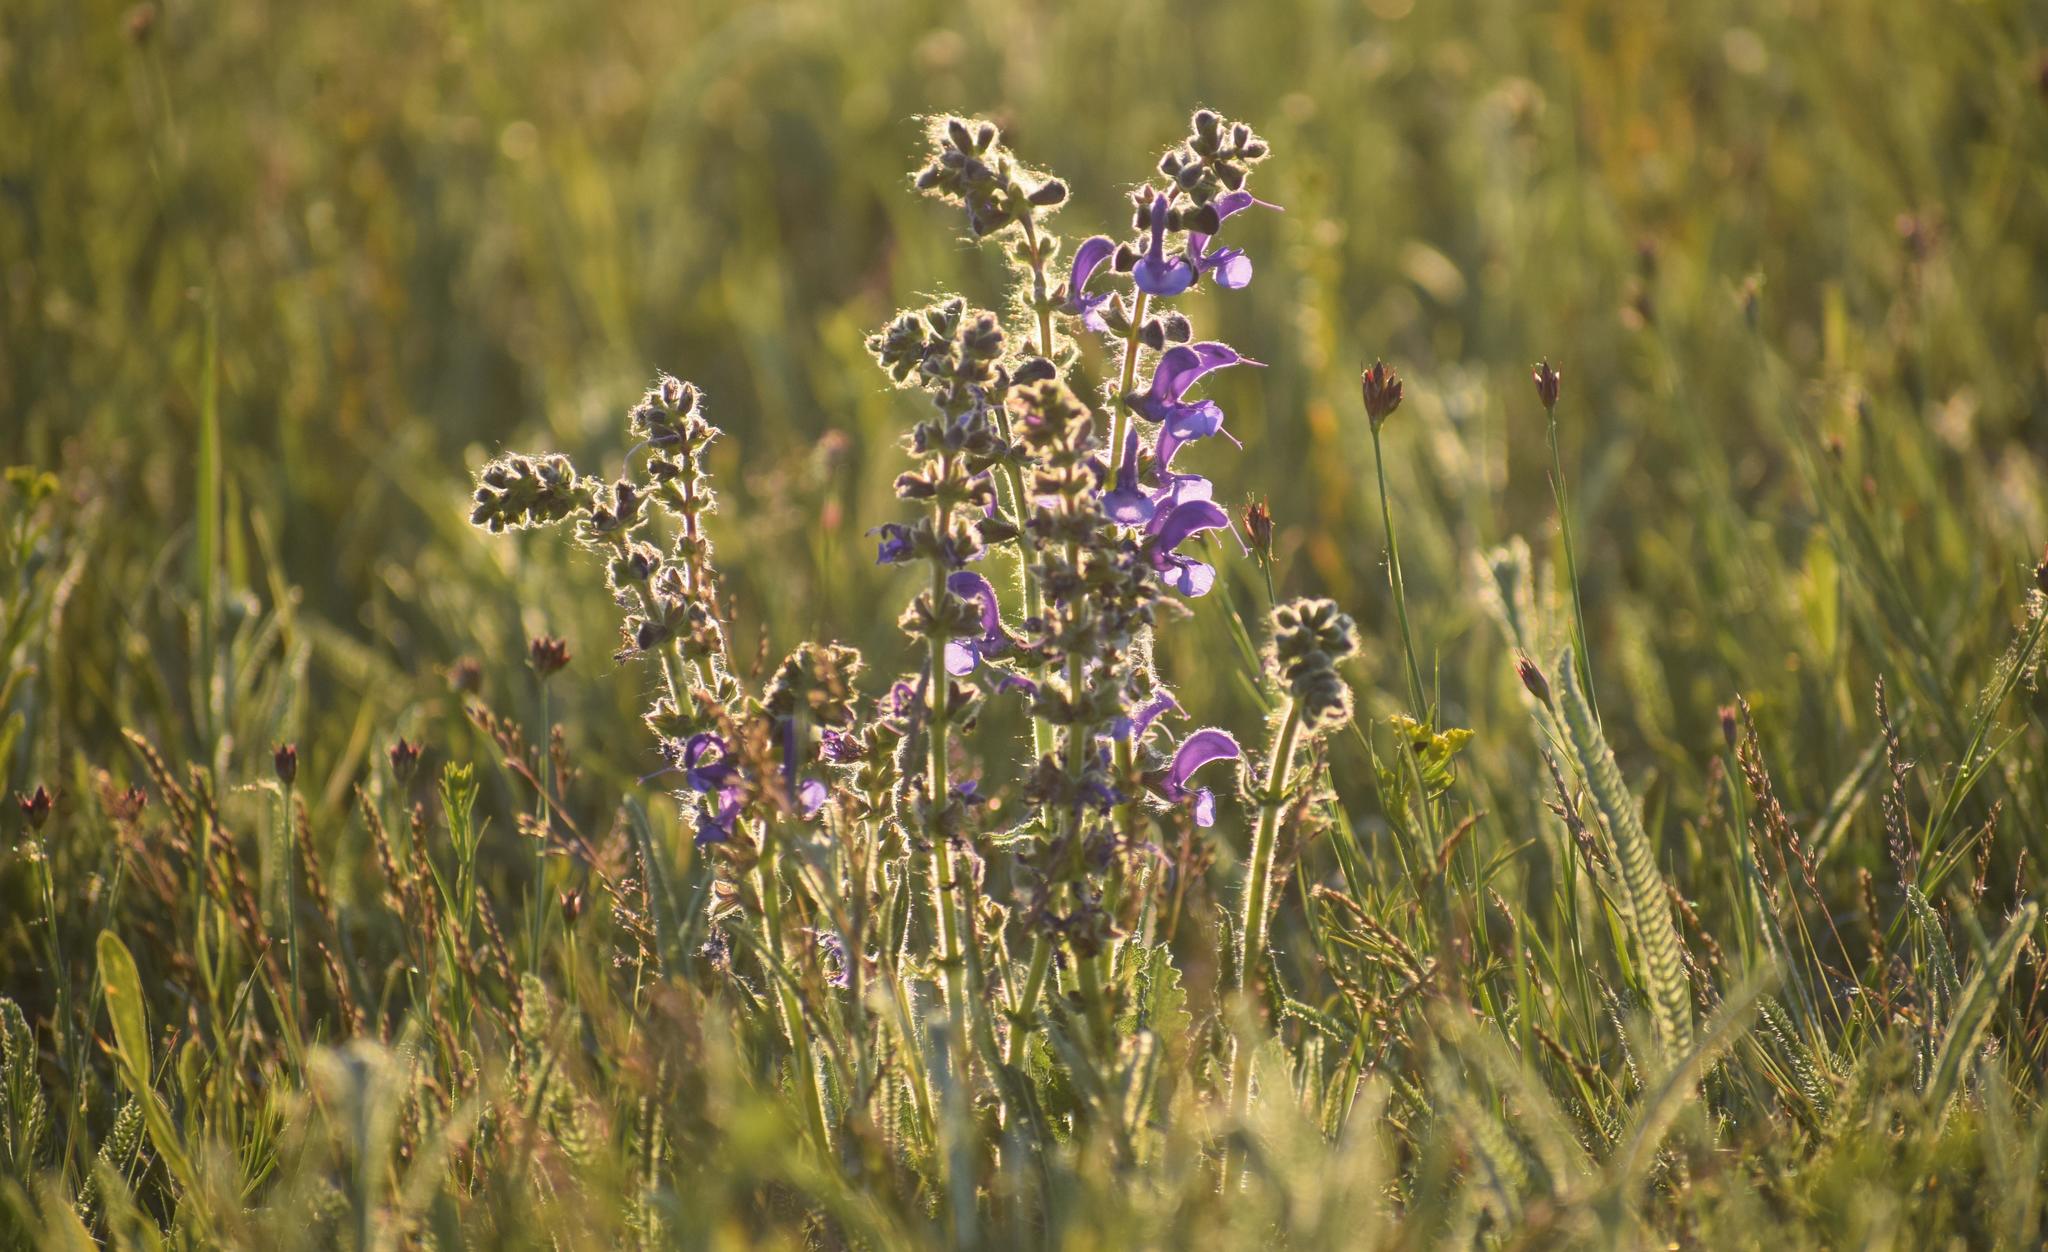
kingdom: Plantae
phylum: Tracheophyta
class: Magnoliopsida
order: Lamiales
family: Lamiaceae
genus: Salvia
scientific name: Salvia pratensis
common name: Meadow sage
